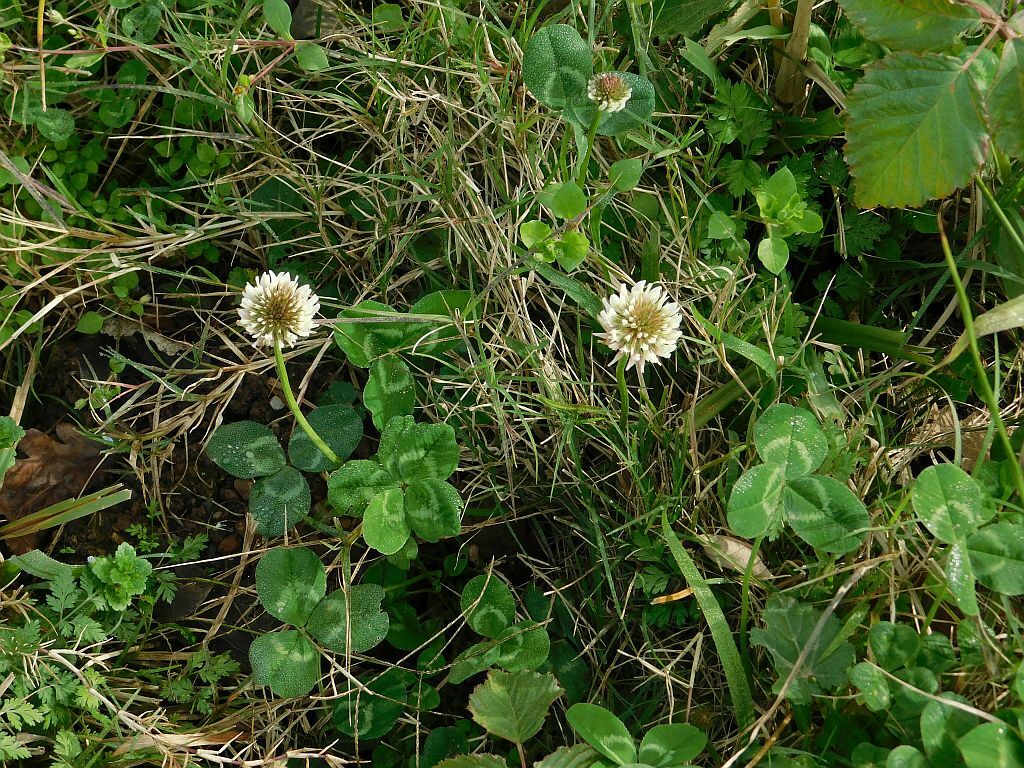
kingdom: Plantae
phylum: Tracheophyta
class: Magnoliopsida
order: Fabales
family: Fabaceae
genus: Trifolium
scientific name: Trifolium repens
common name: White clover
